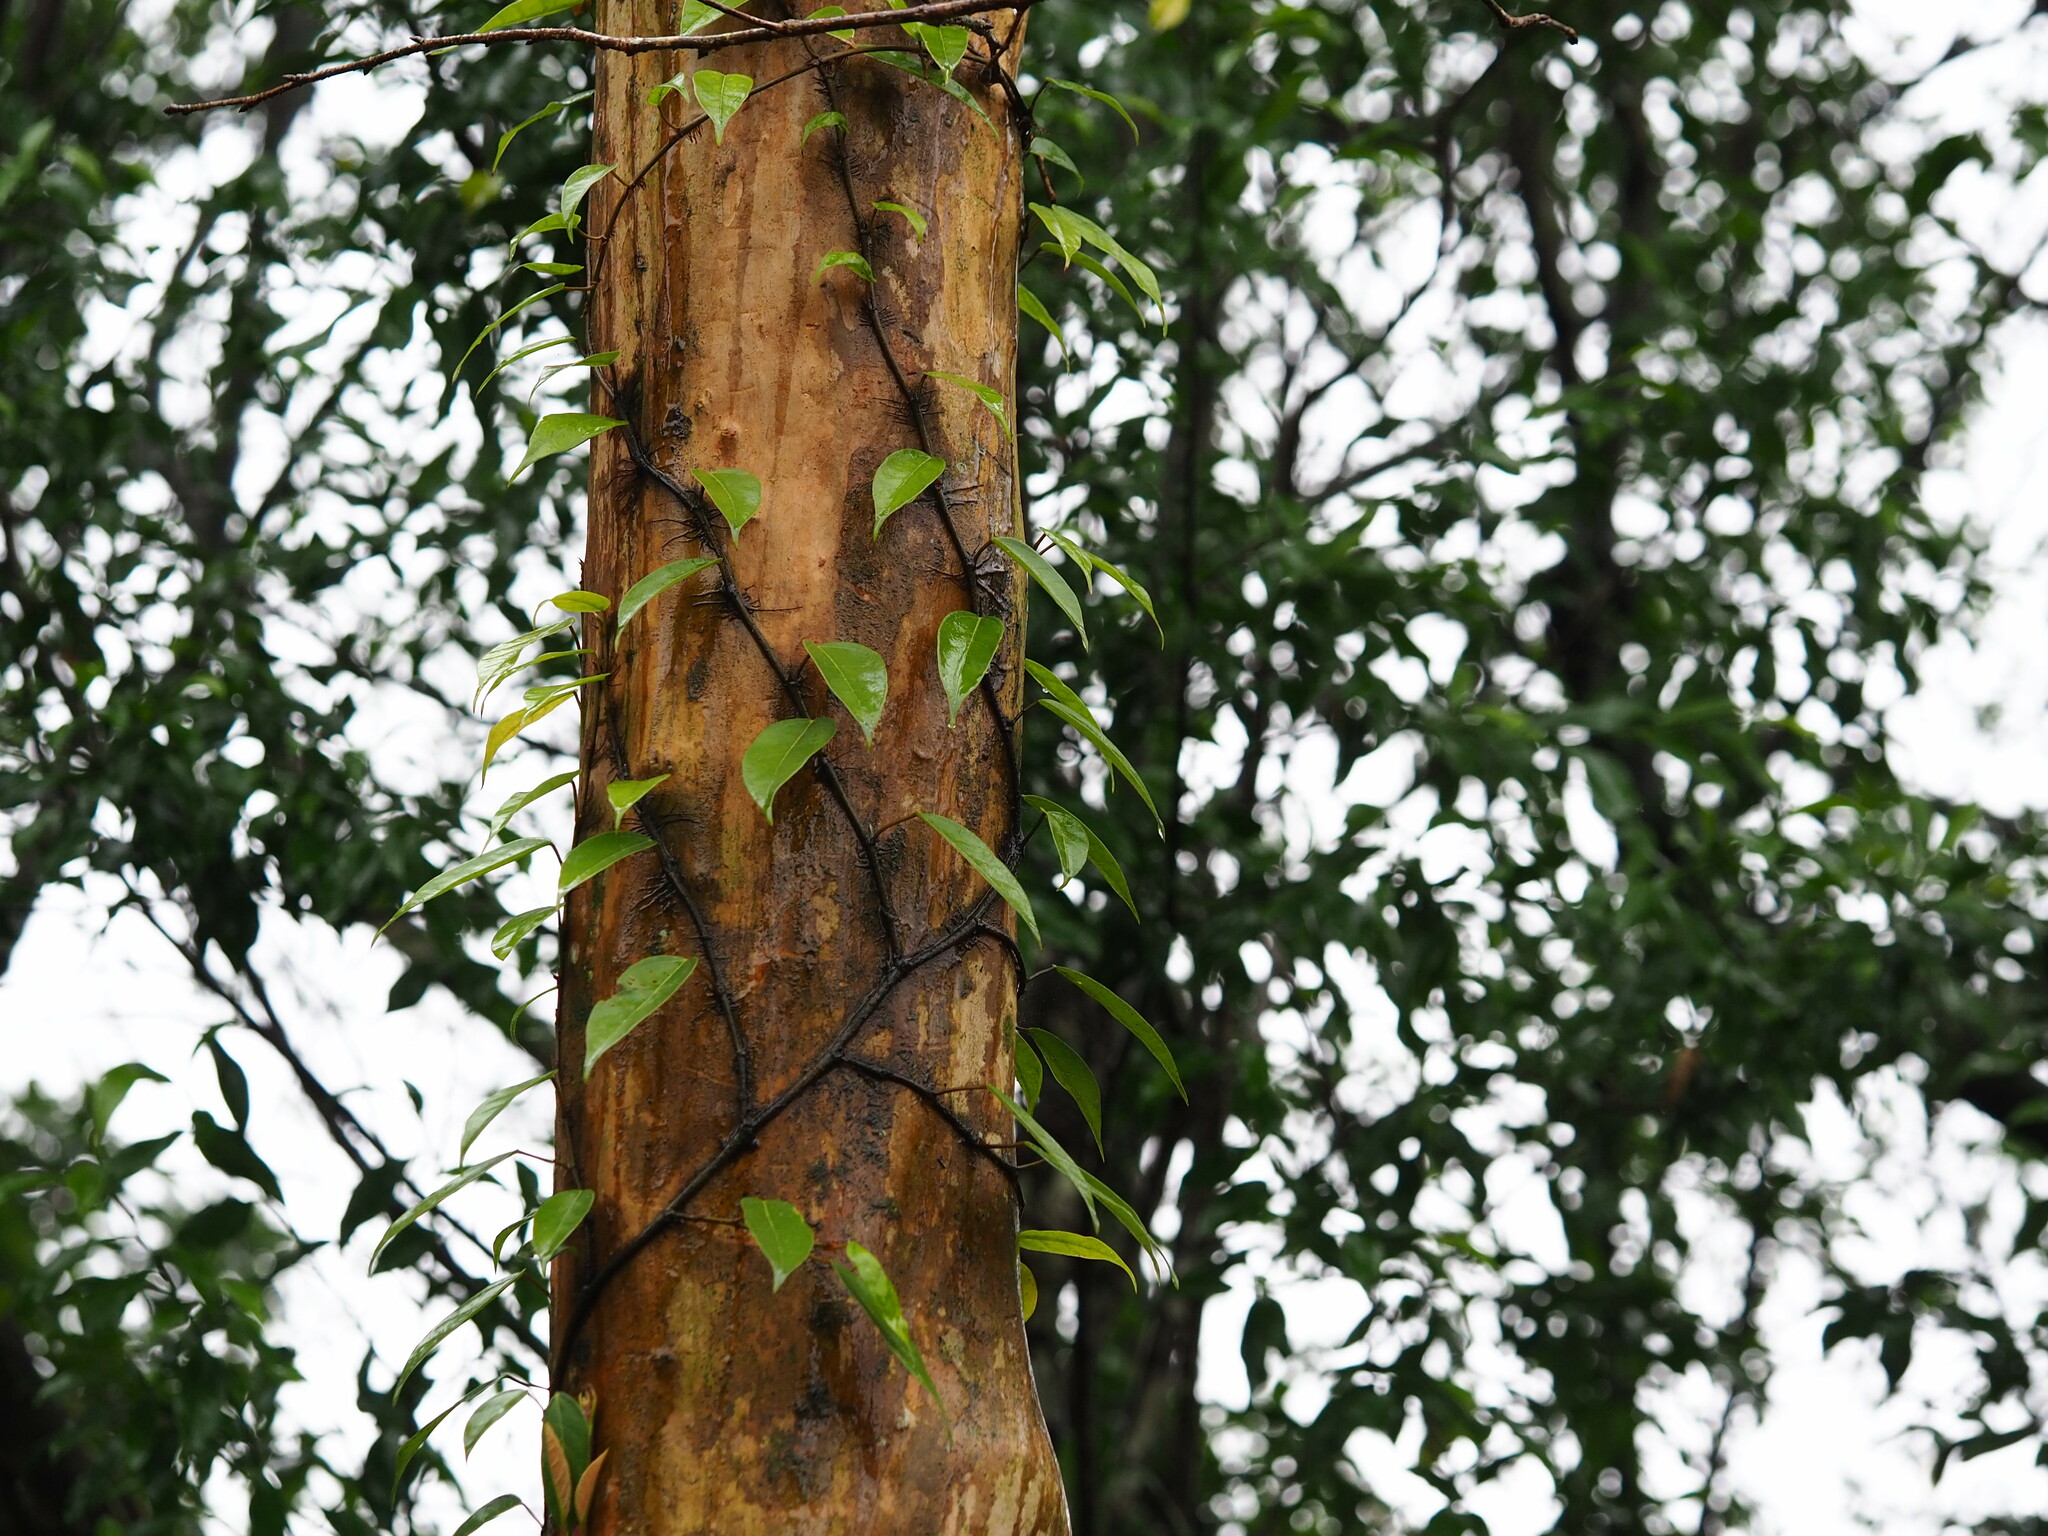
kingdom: Plantae
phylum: Tracheophyta
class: Magnoliopsida
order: Cornales
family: Hydrangeaceae
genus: Hydrangea
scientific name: Hydrangea viburnoides
